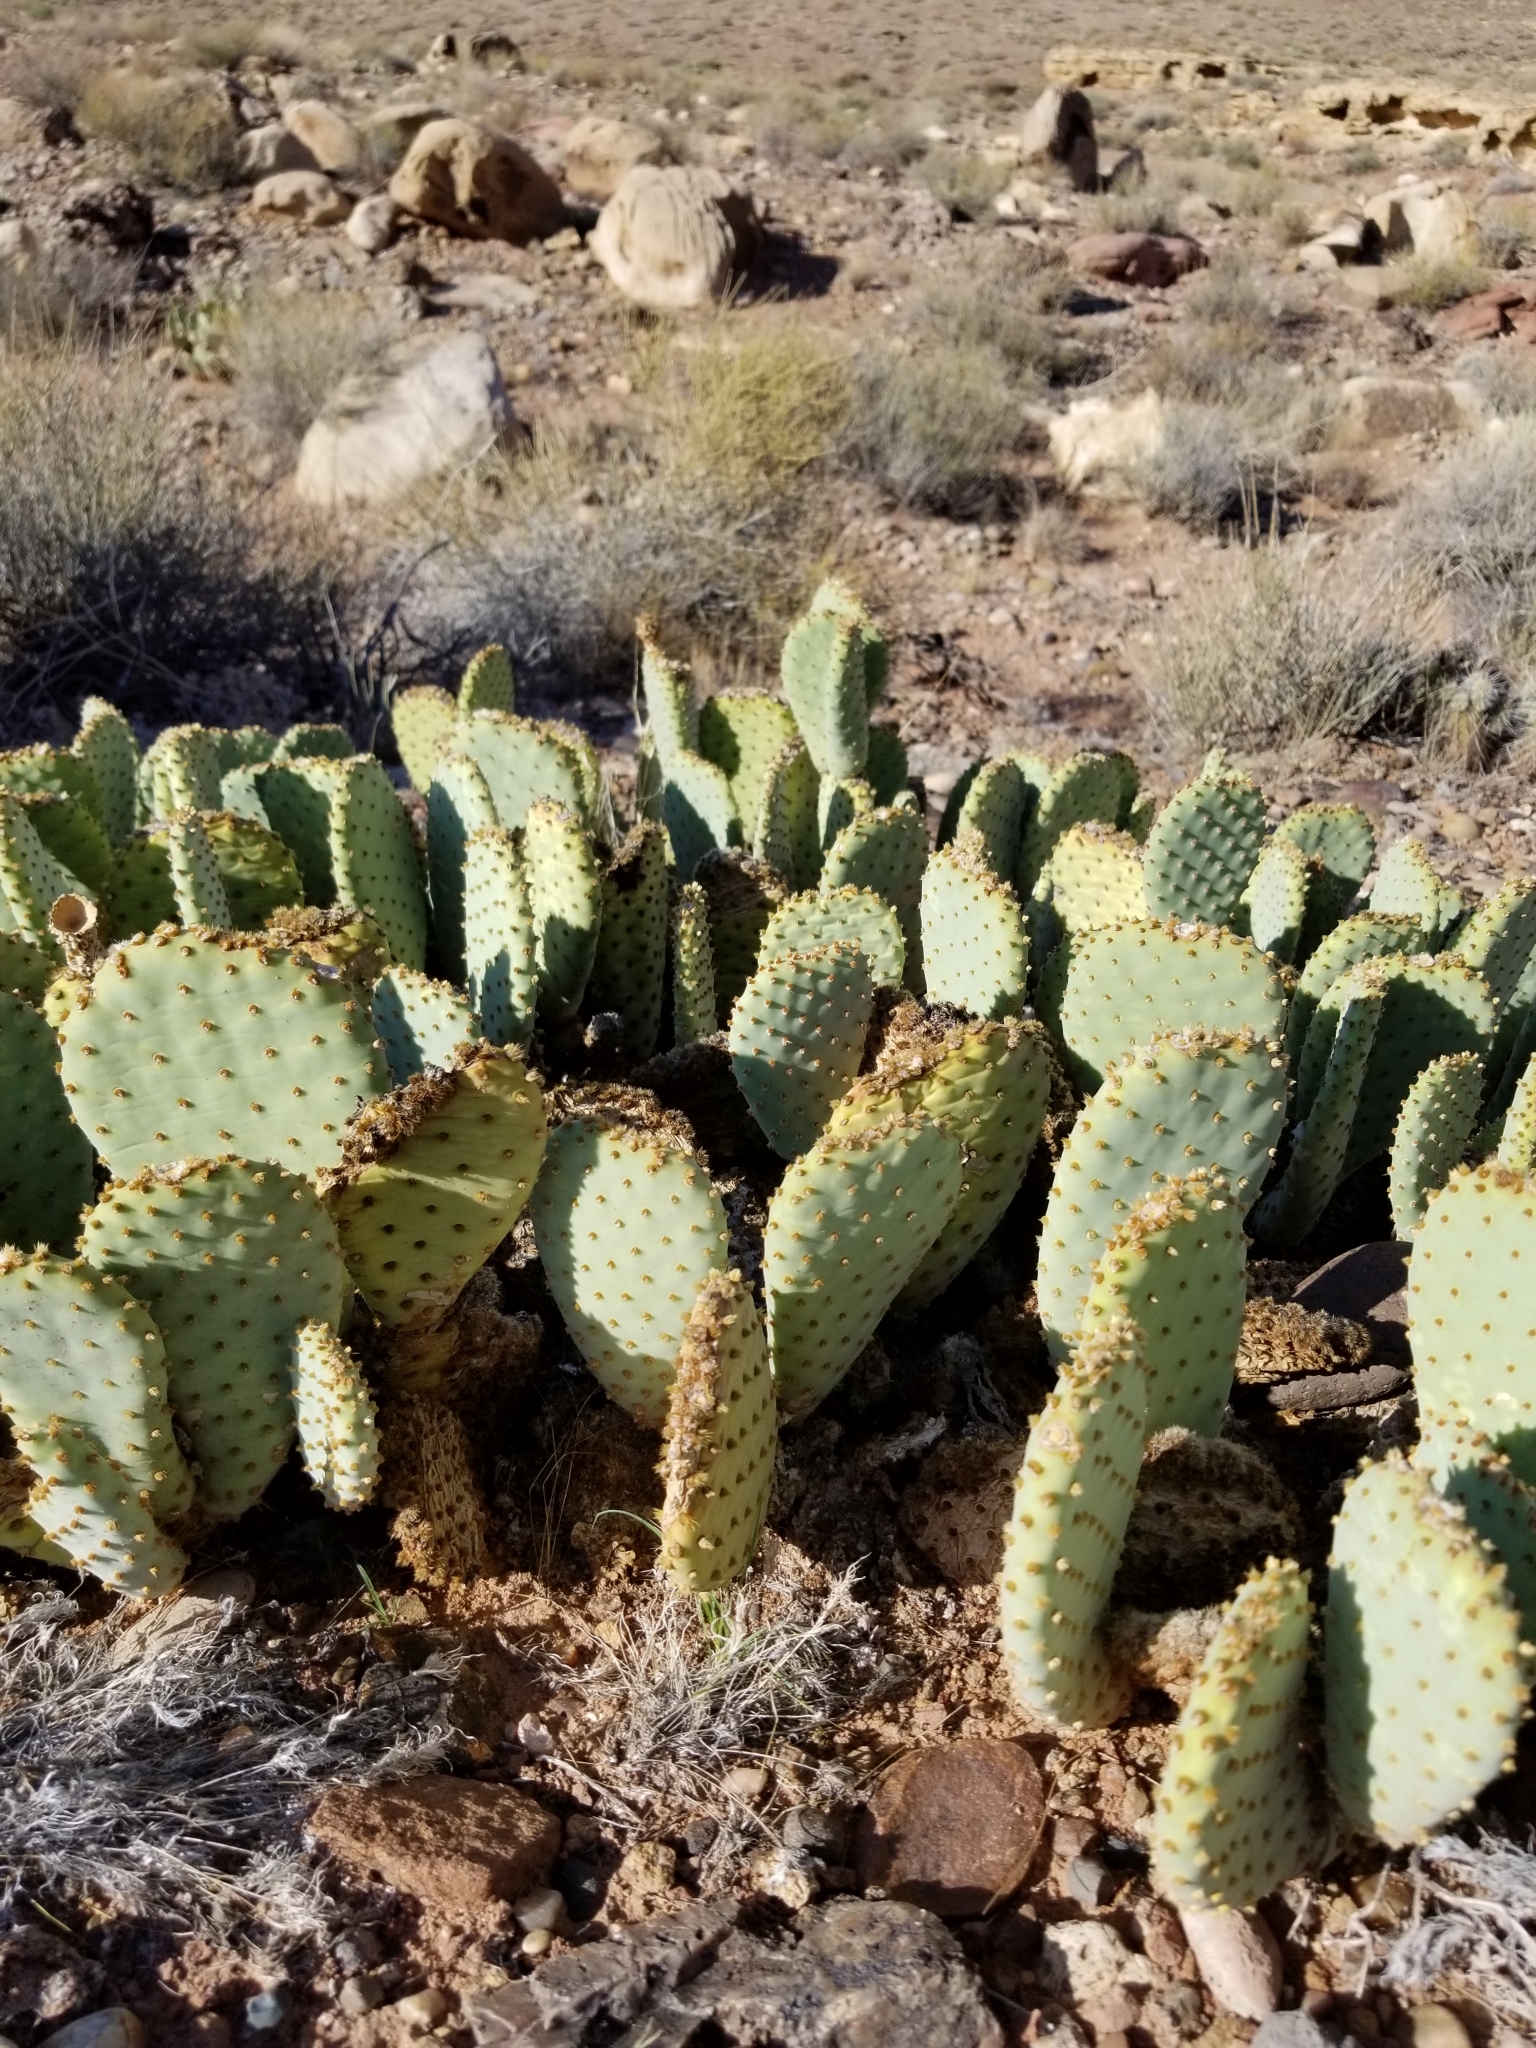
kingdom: Plantae
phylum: Tracheophyta
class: Magnoliopsida
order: Caryophyllales
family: Cactaceae
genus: Opuntia
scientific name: Opuntia basilaris
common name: Beavertail prickly-pear
